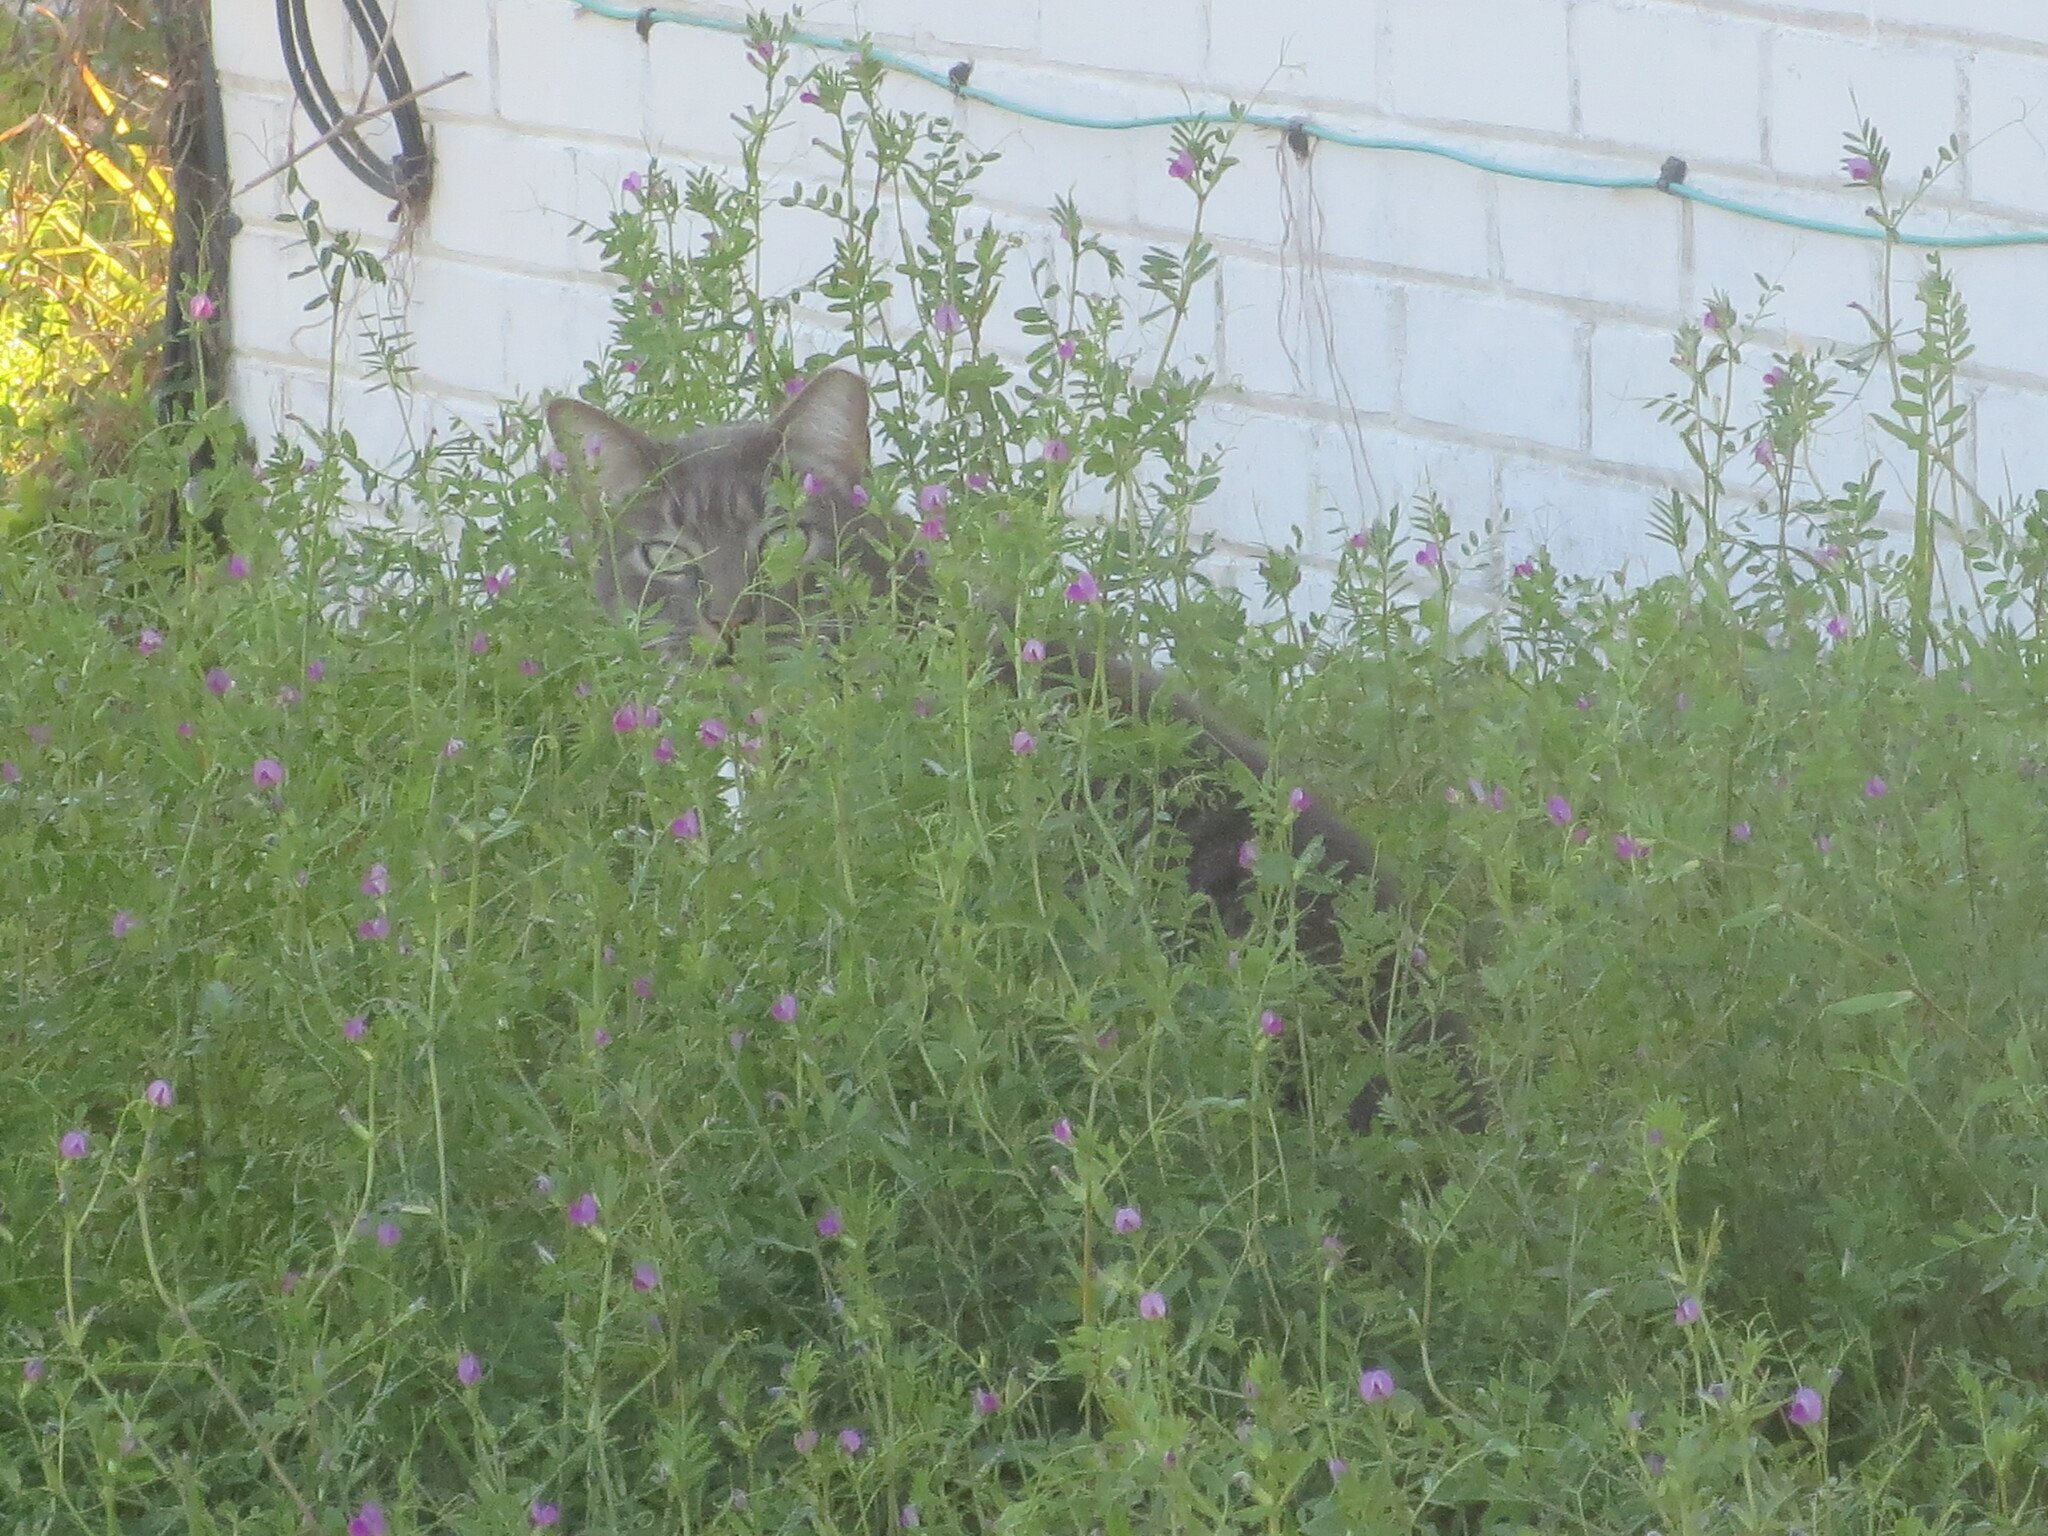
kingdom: Animalia
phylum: Chordata
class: Mammalia
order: Carnivora
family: Felidae
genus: Felis
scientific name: Felis catus
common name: Domestic cat
